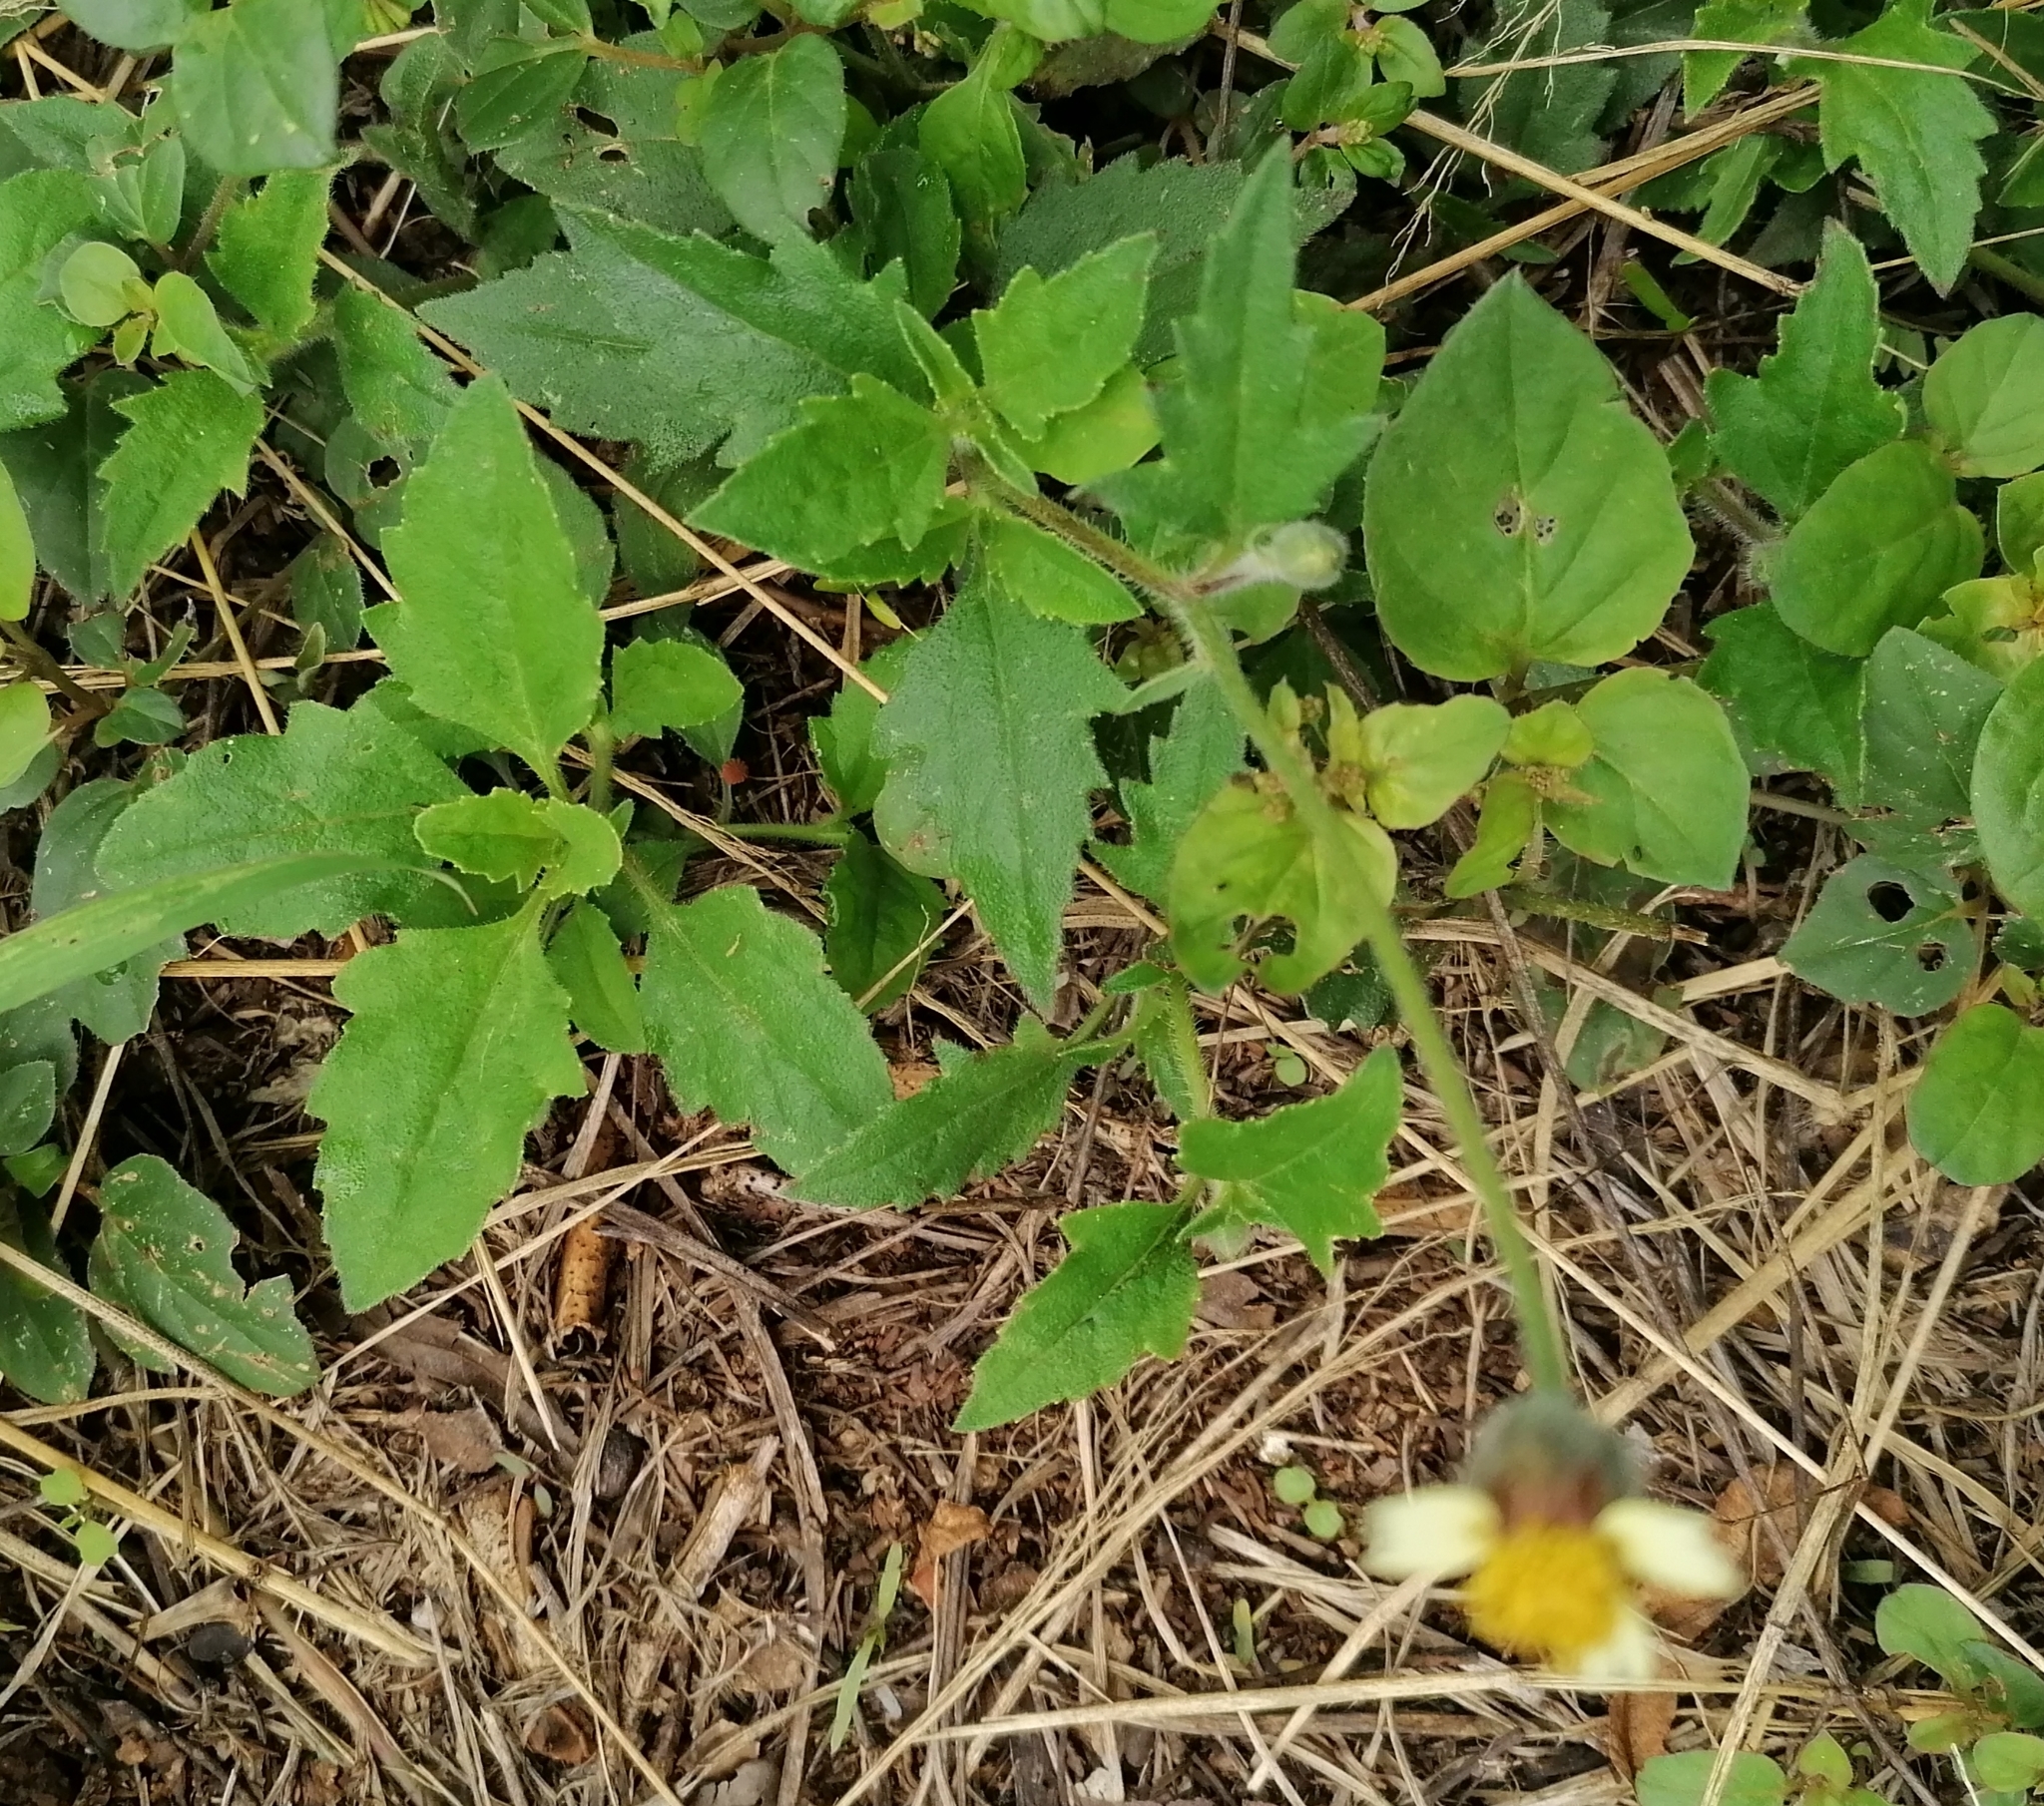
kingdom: Plantae
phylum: Tracheophyta
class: Magnoliopsida
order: Asterales
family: Asteraceae
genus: Tridax
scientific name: Tridax procumbens
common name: Coatbuttons
